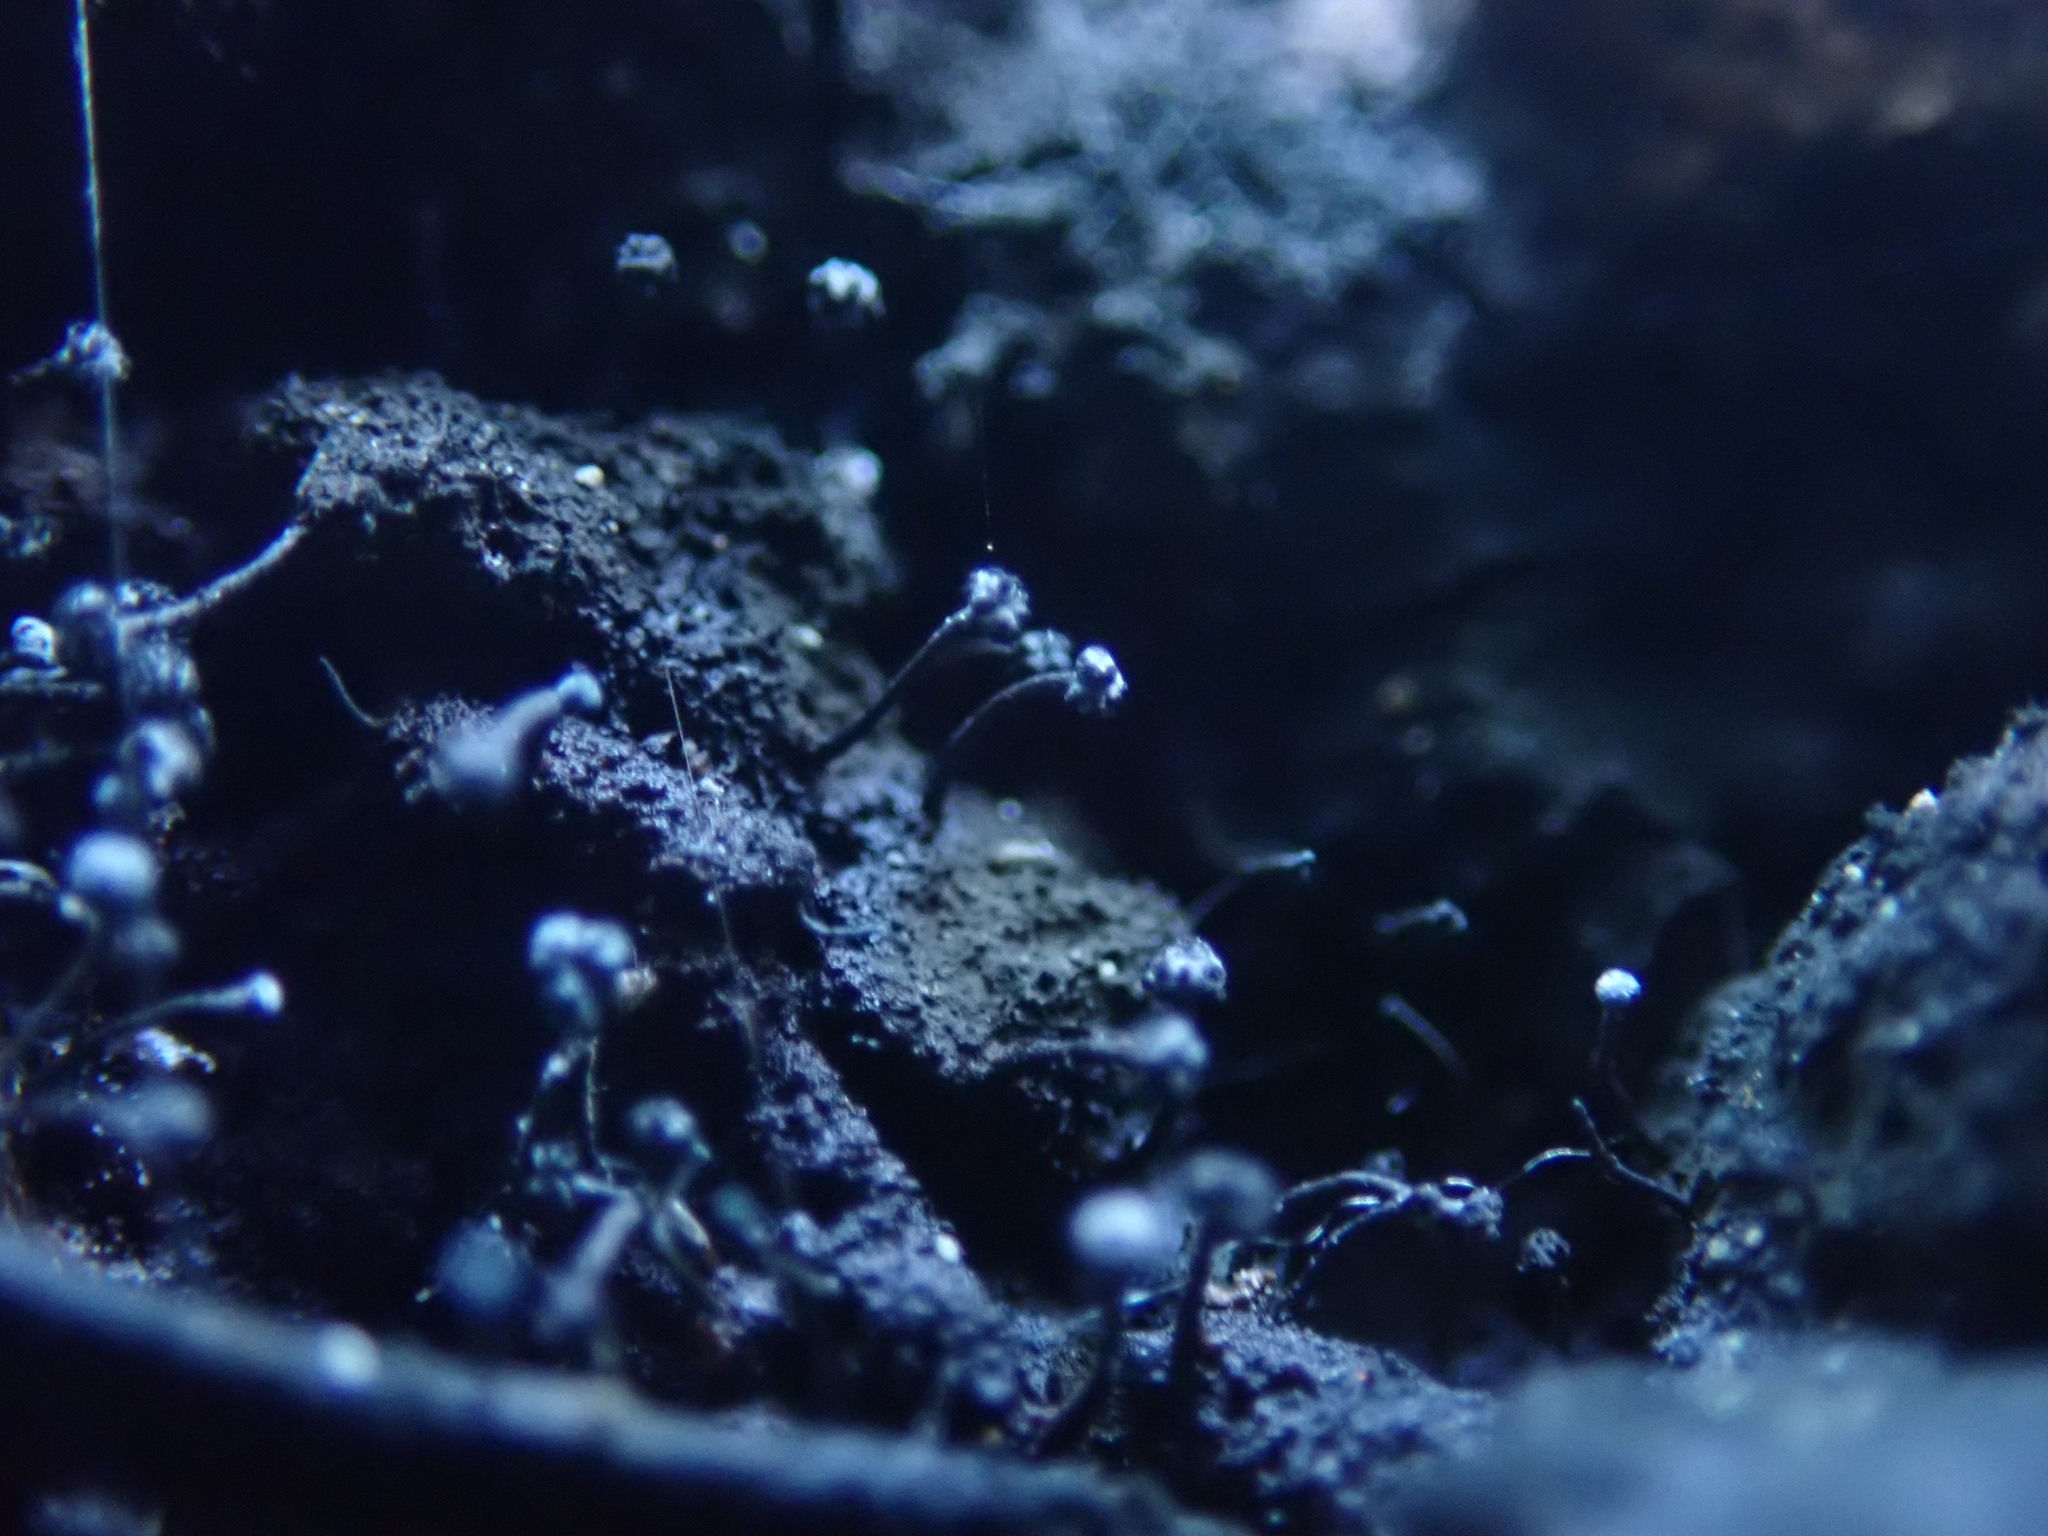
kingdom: Fungi
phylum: Ascomycota
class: Eurotiomycetes
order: Mycocaliciales
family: Mycocaliciaceae
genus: Chaenothecopsis
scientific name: Chaenothecopsis nigripunctata
